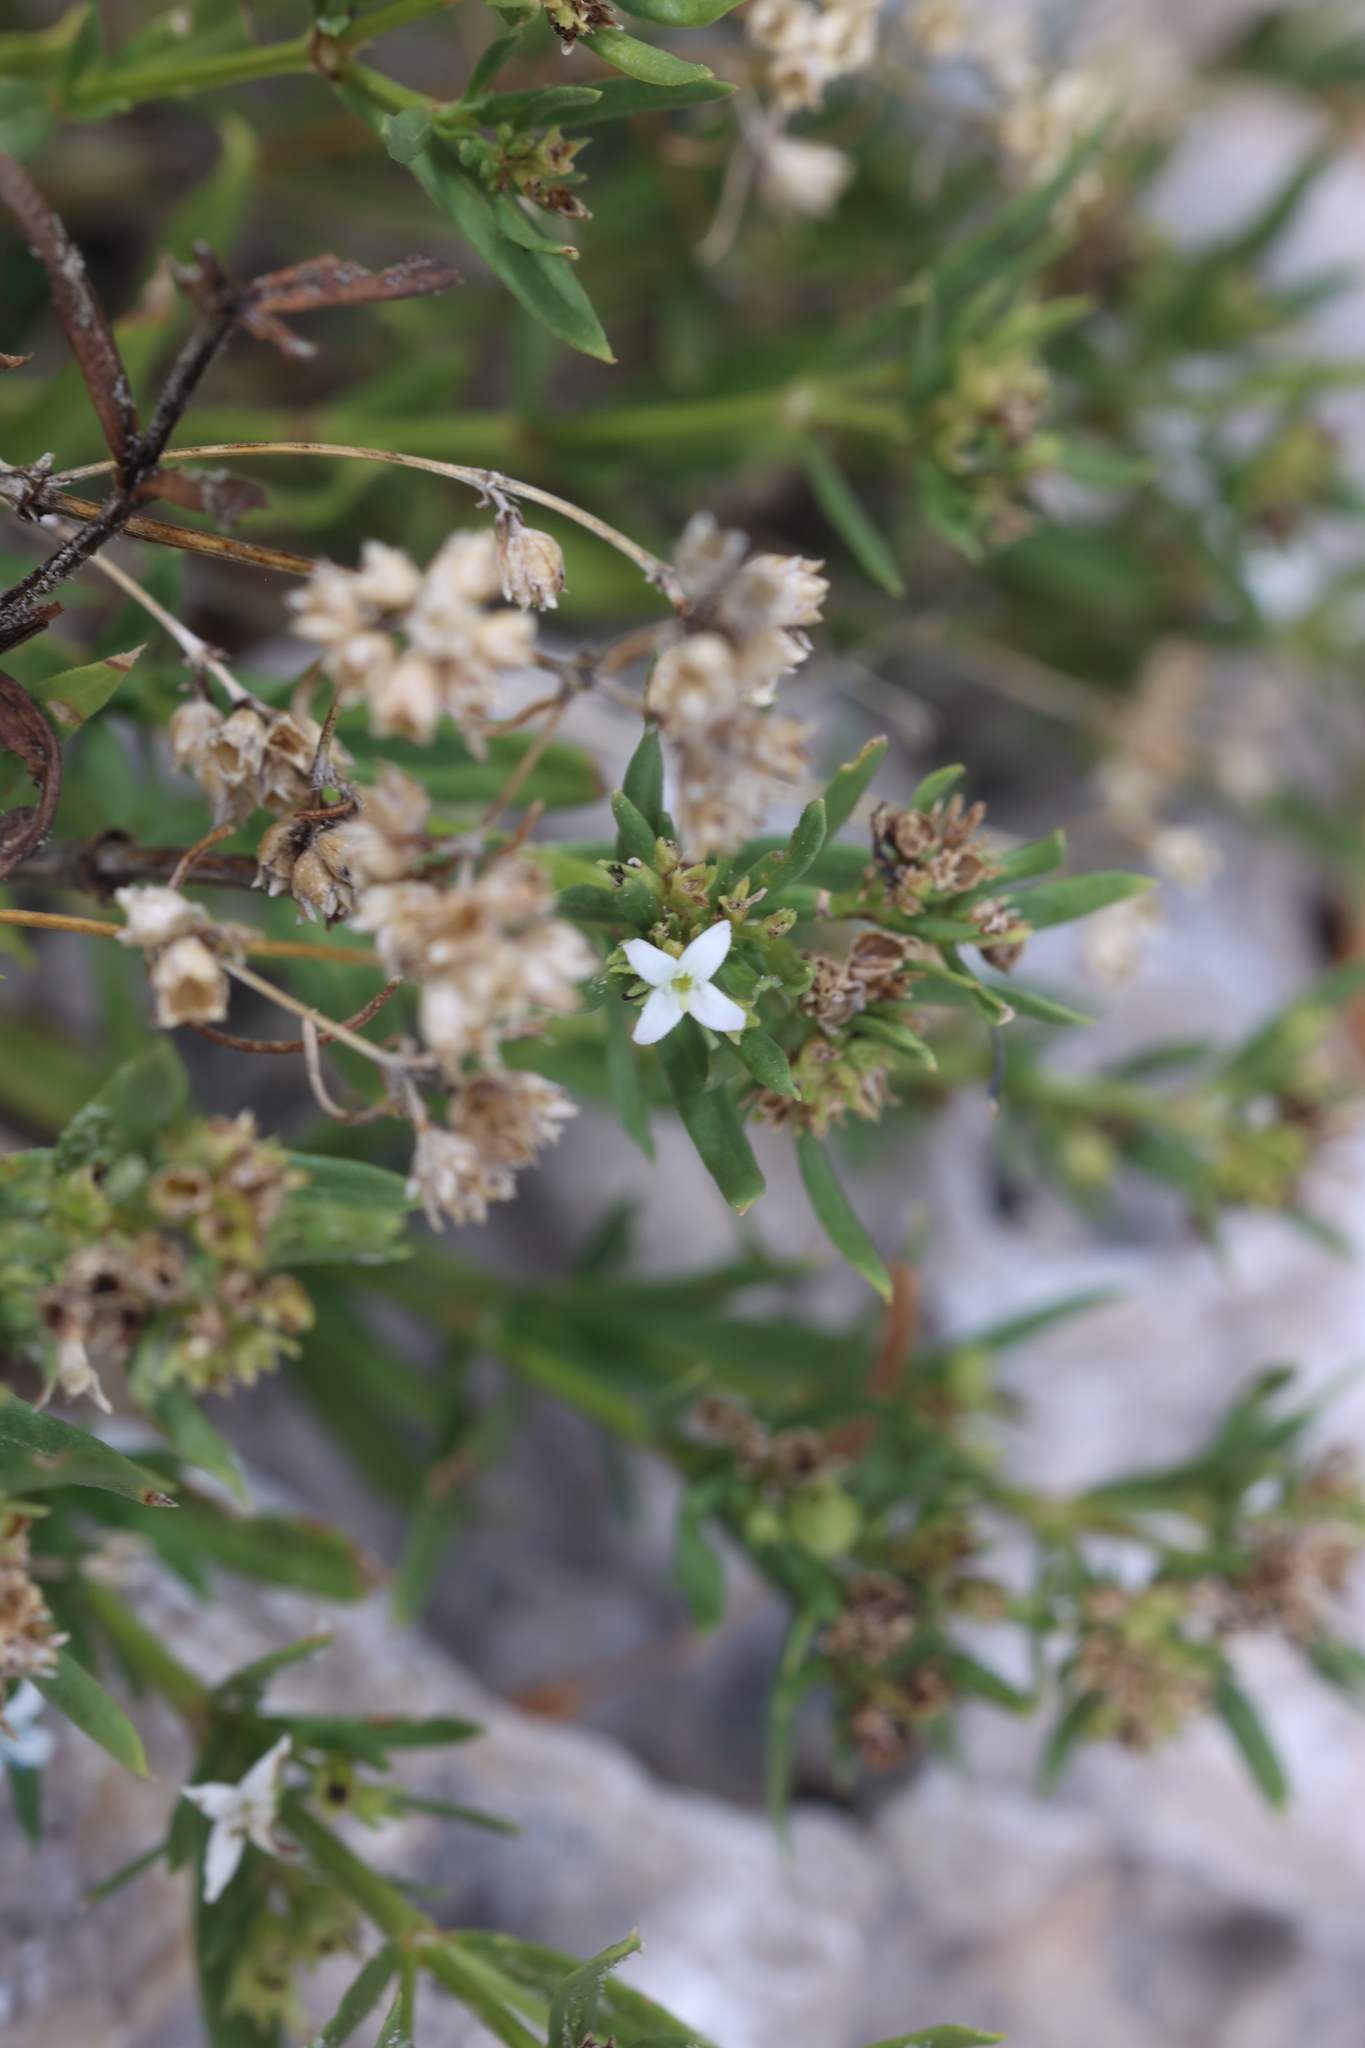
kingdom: Plantae
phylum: Tracheophyta
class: Magnoliopsida
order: Gentianales
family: Rubiaceae
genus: Stenaria
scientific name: Stenaria nigricans
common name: Diamondflowers
